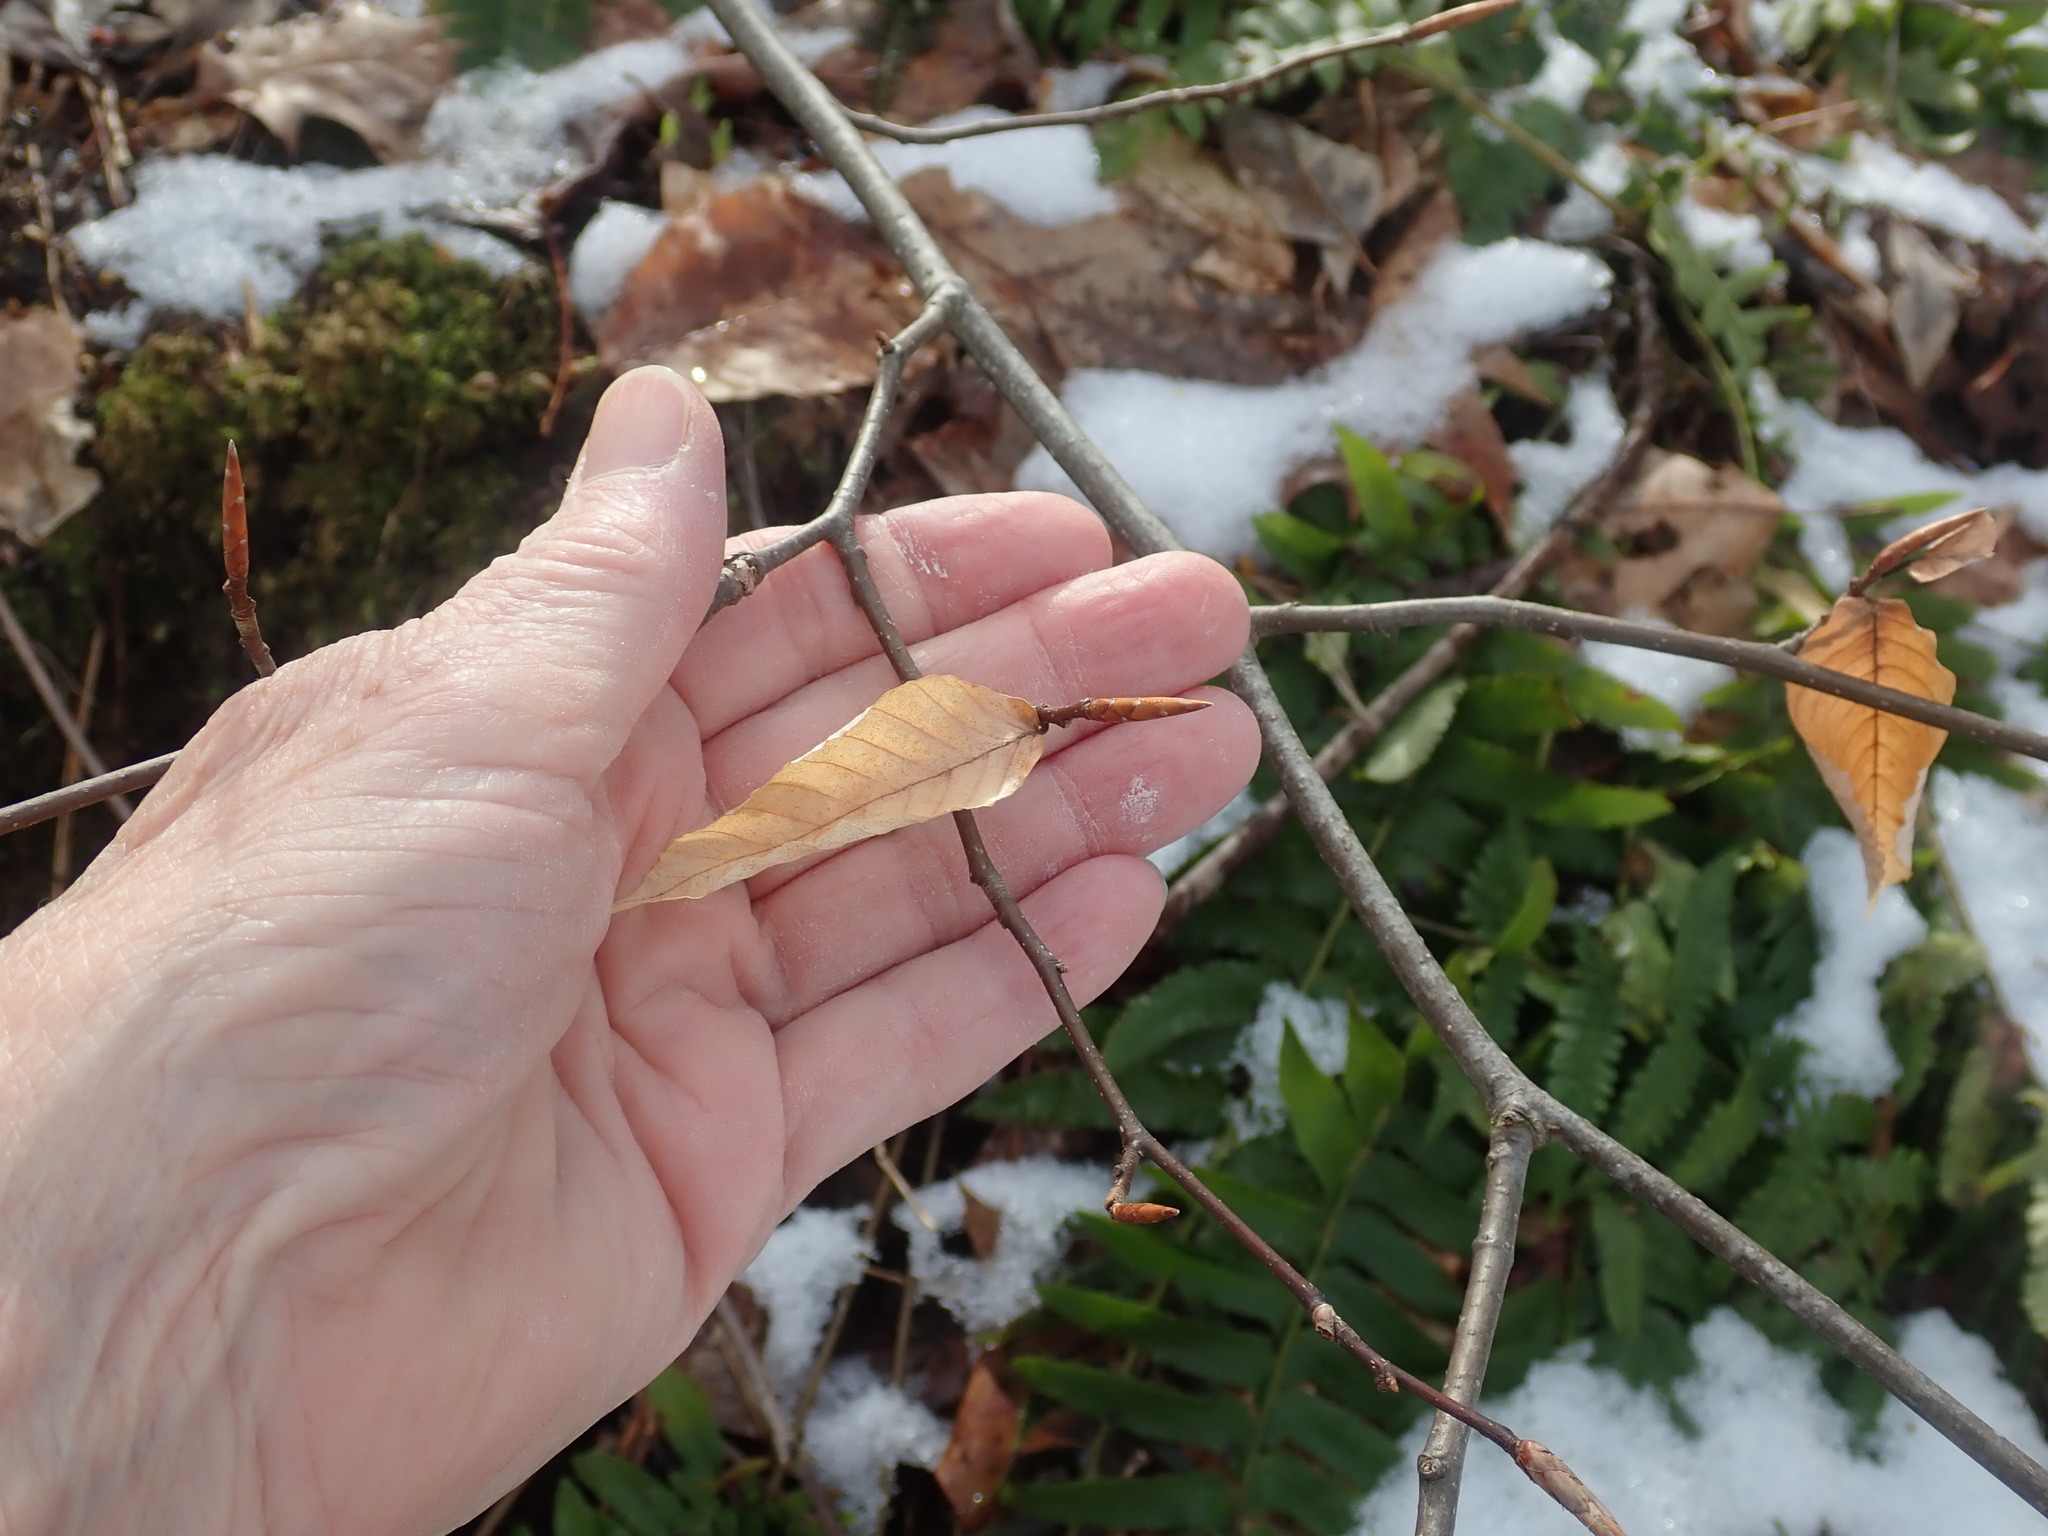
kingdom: Plantae
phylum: Tracheophyta
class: Magnoliopsida
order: Fagales
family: Fagaceae
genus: Fagus
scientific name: Fagus grandifolia
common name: American beech
